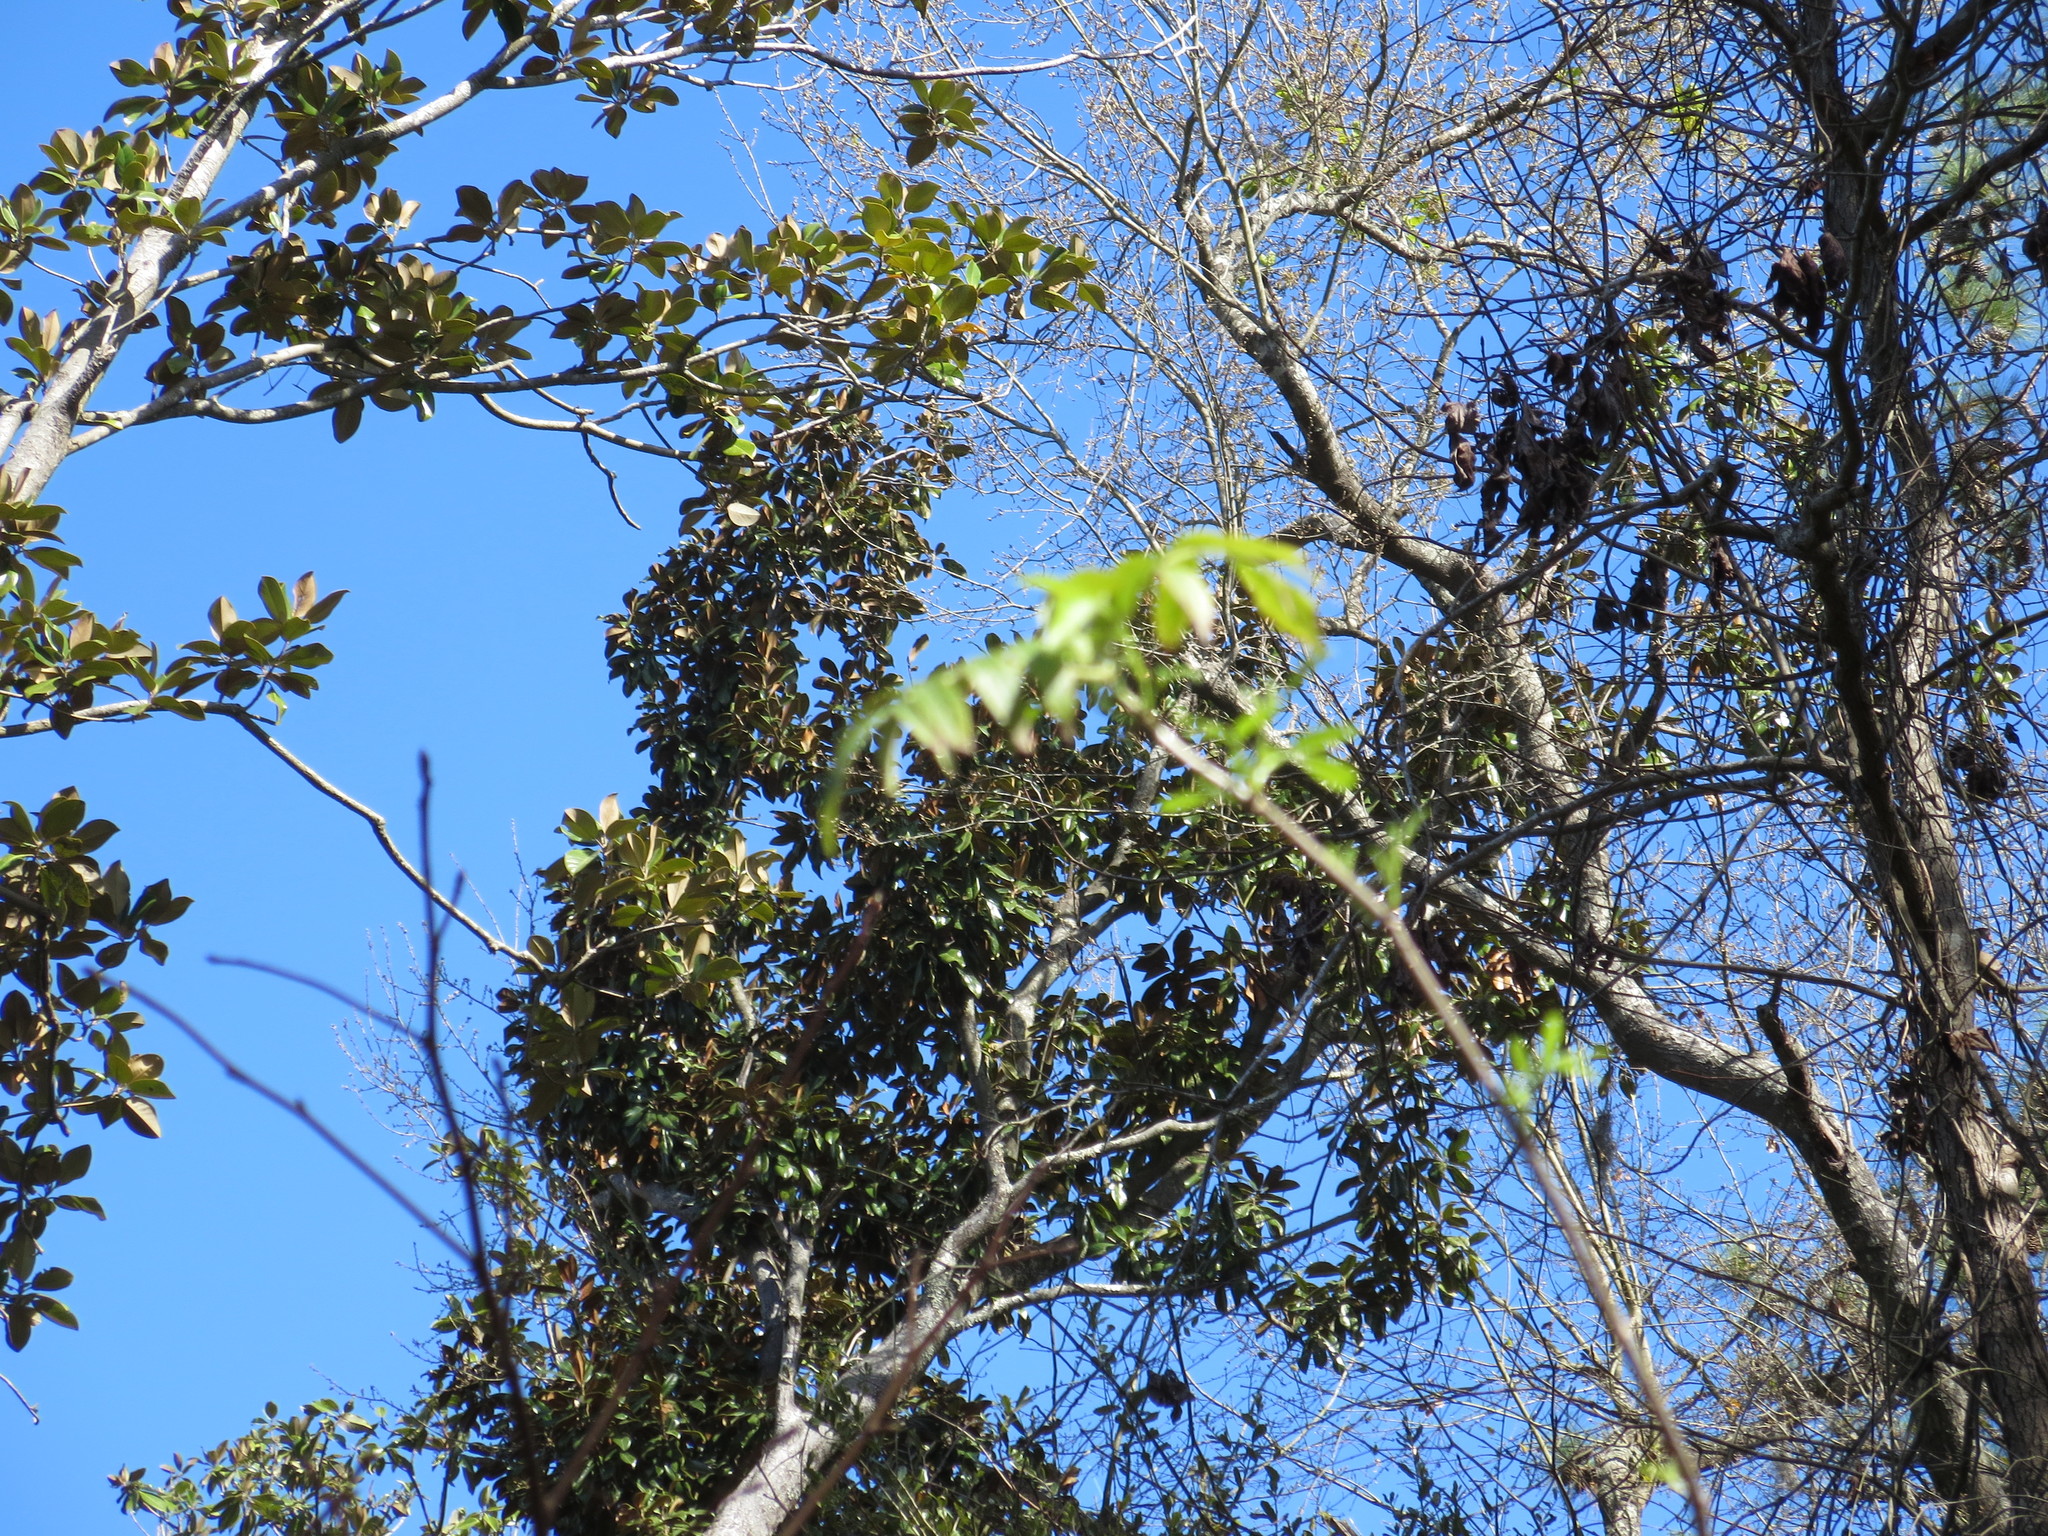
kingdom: Plantae
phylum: Tracheophyta
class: Magnoliopsida
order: Dipsacales
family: Viburnaceae
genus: Sambucus
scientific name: Sambucus canadensis
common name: American elder
